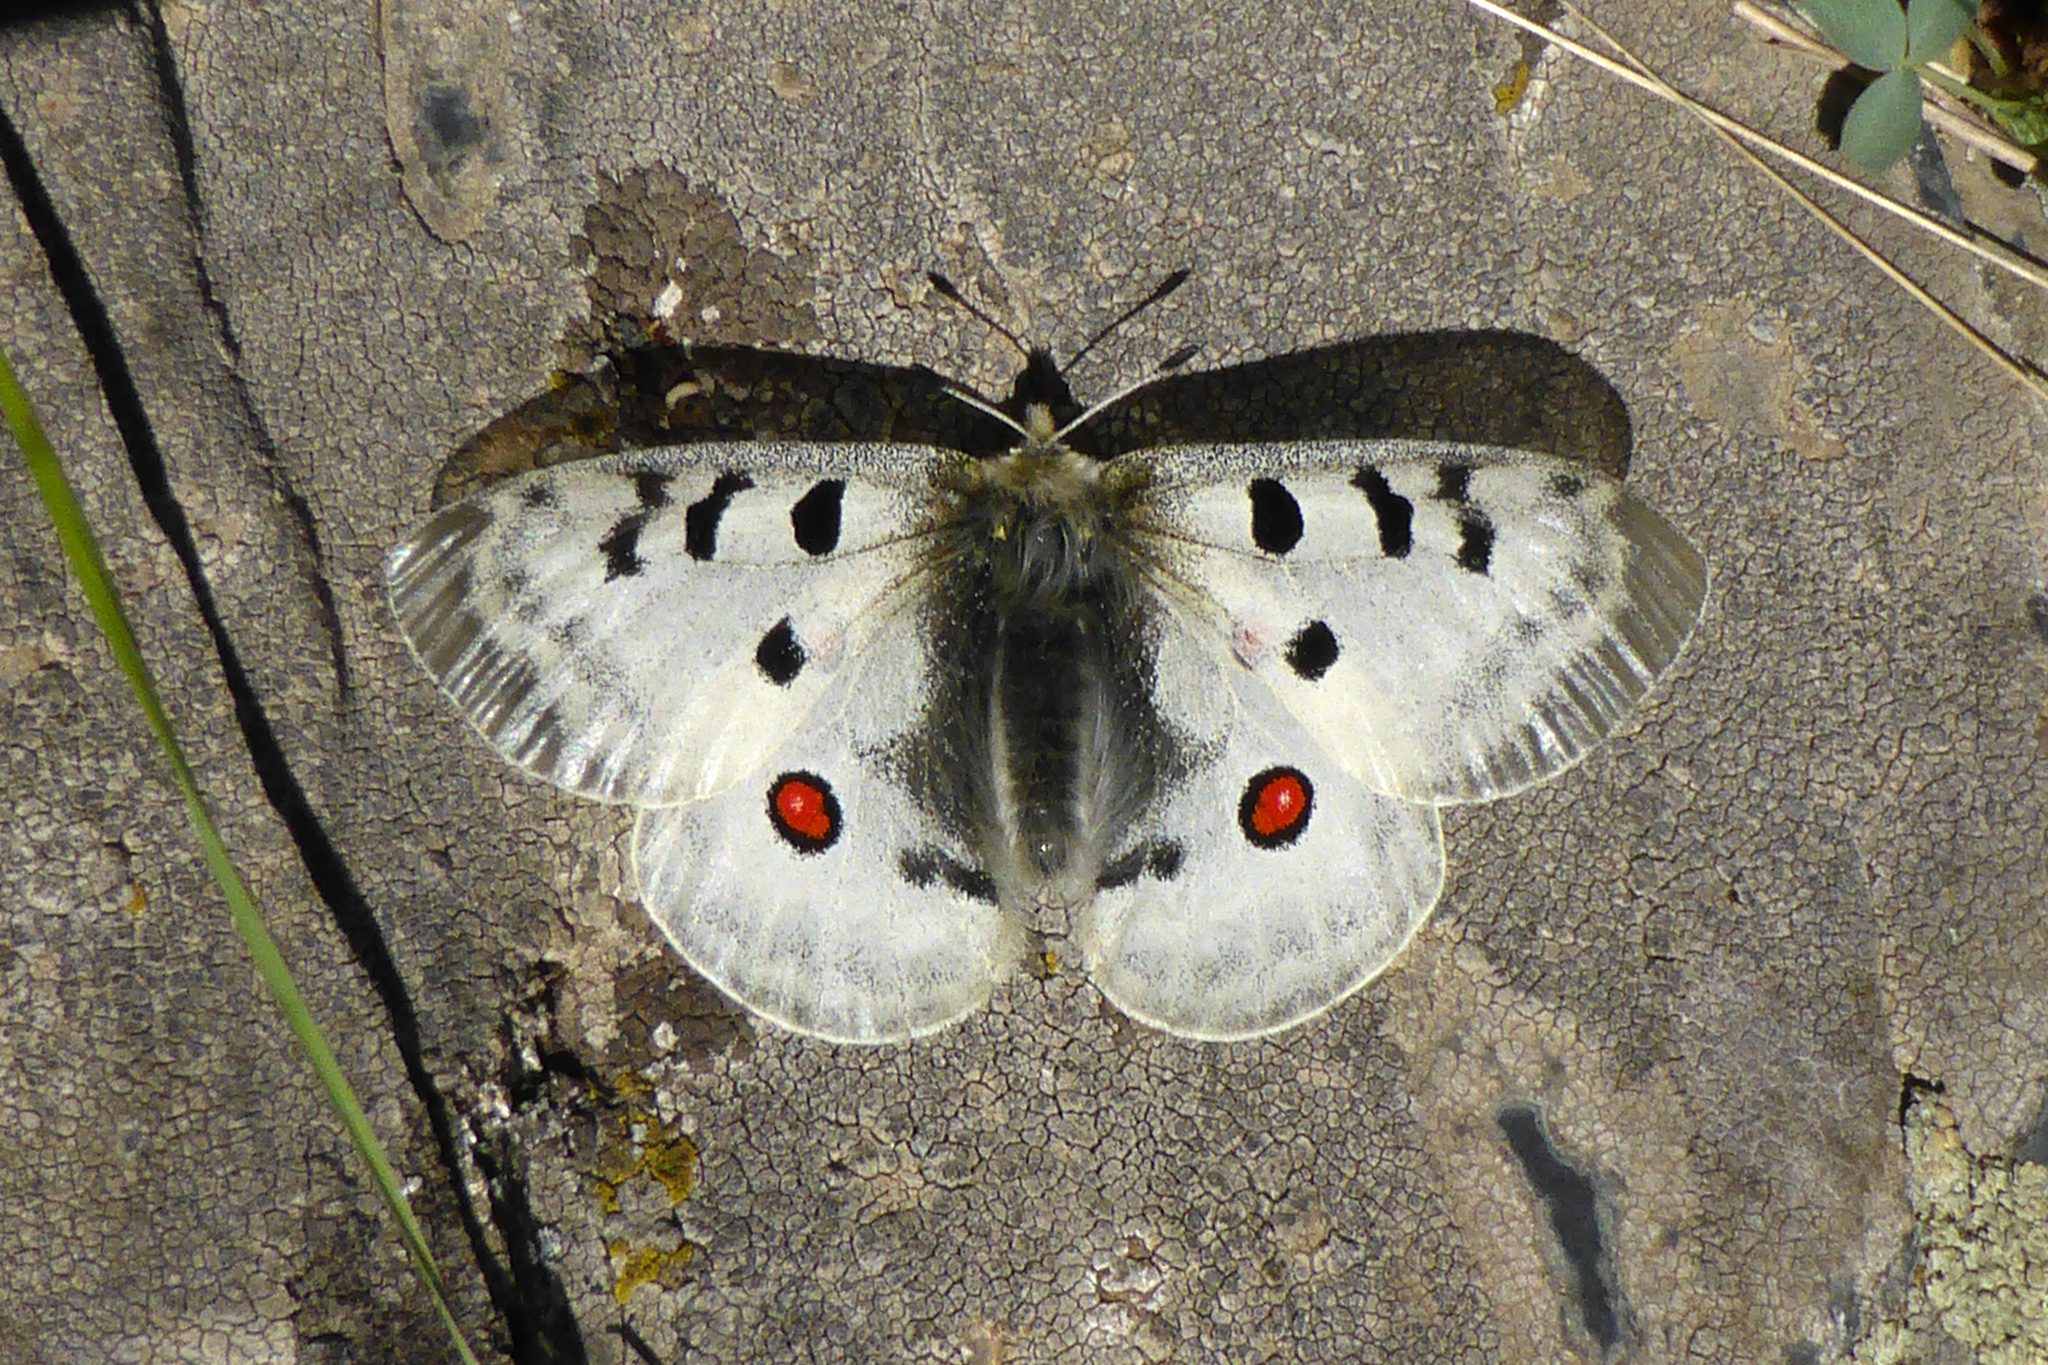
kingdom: Animalia
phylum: Arthropoda
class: Insecta
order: Lepidoptera
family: Papilionidae
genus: Parnassius
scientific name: Parnassius apollo
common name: Apollo
